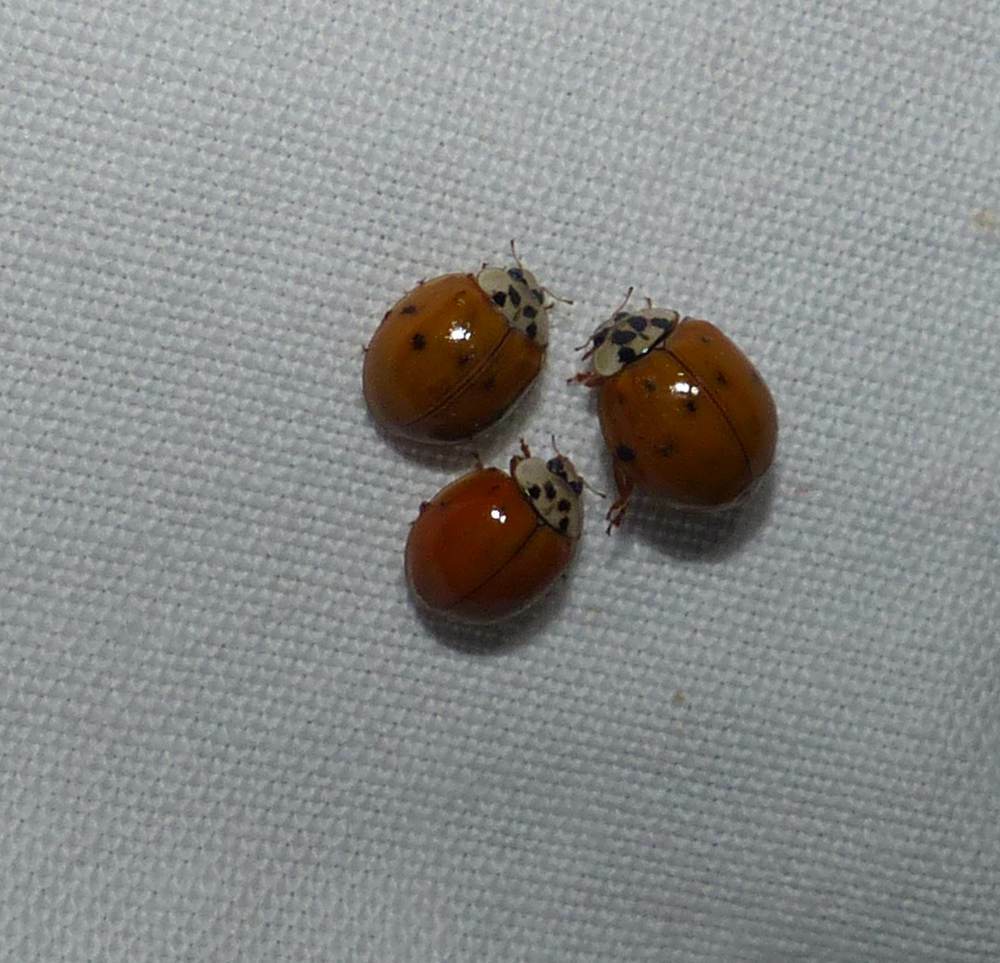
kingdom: Animalia
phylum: Arthropoda
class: Insecta
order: Coleoptera
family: Coccinellidae
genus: Harmonia
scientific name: Harmonia axyridis
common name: Harlequin ladybird
